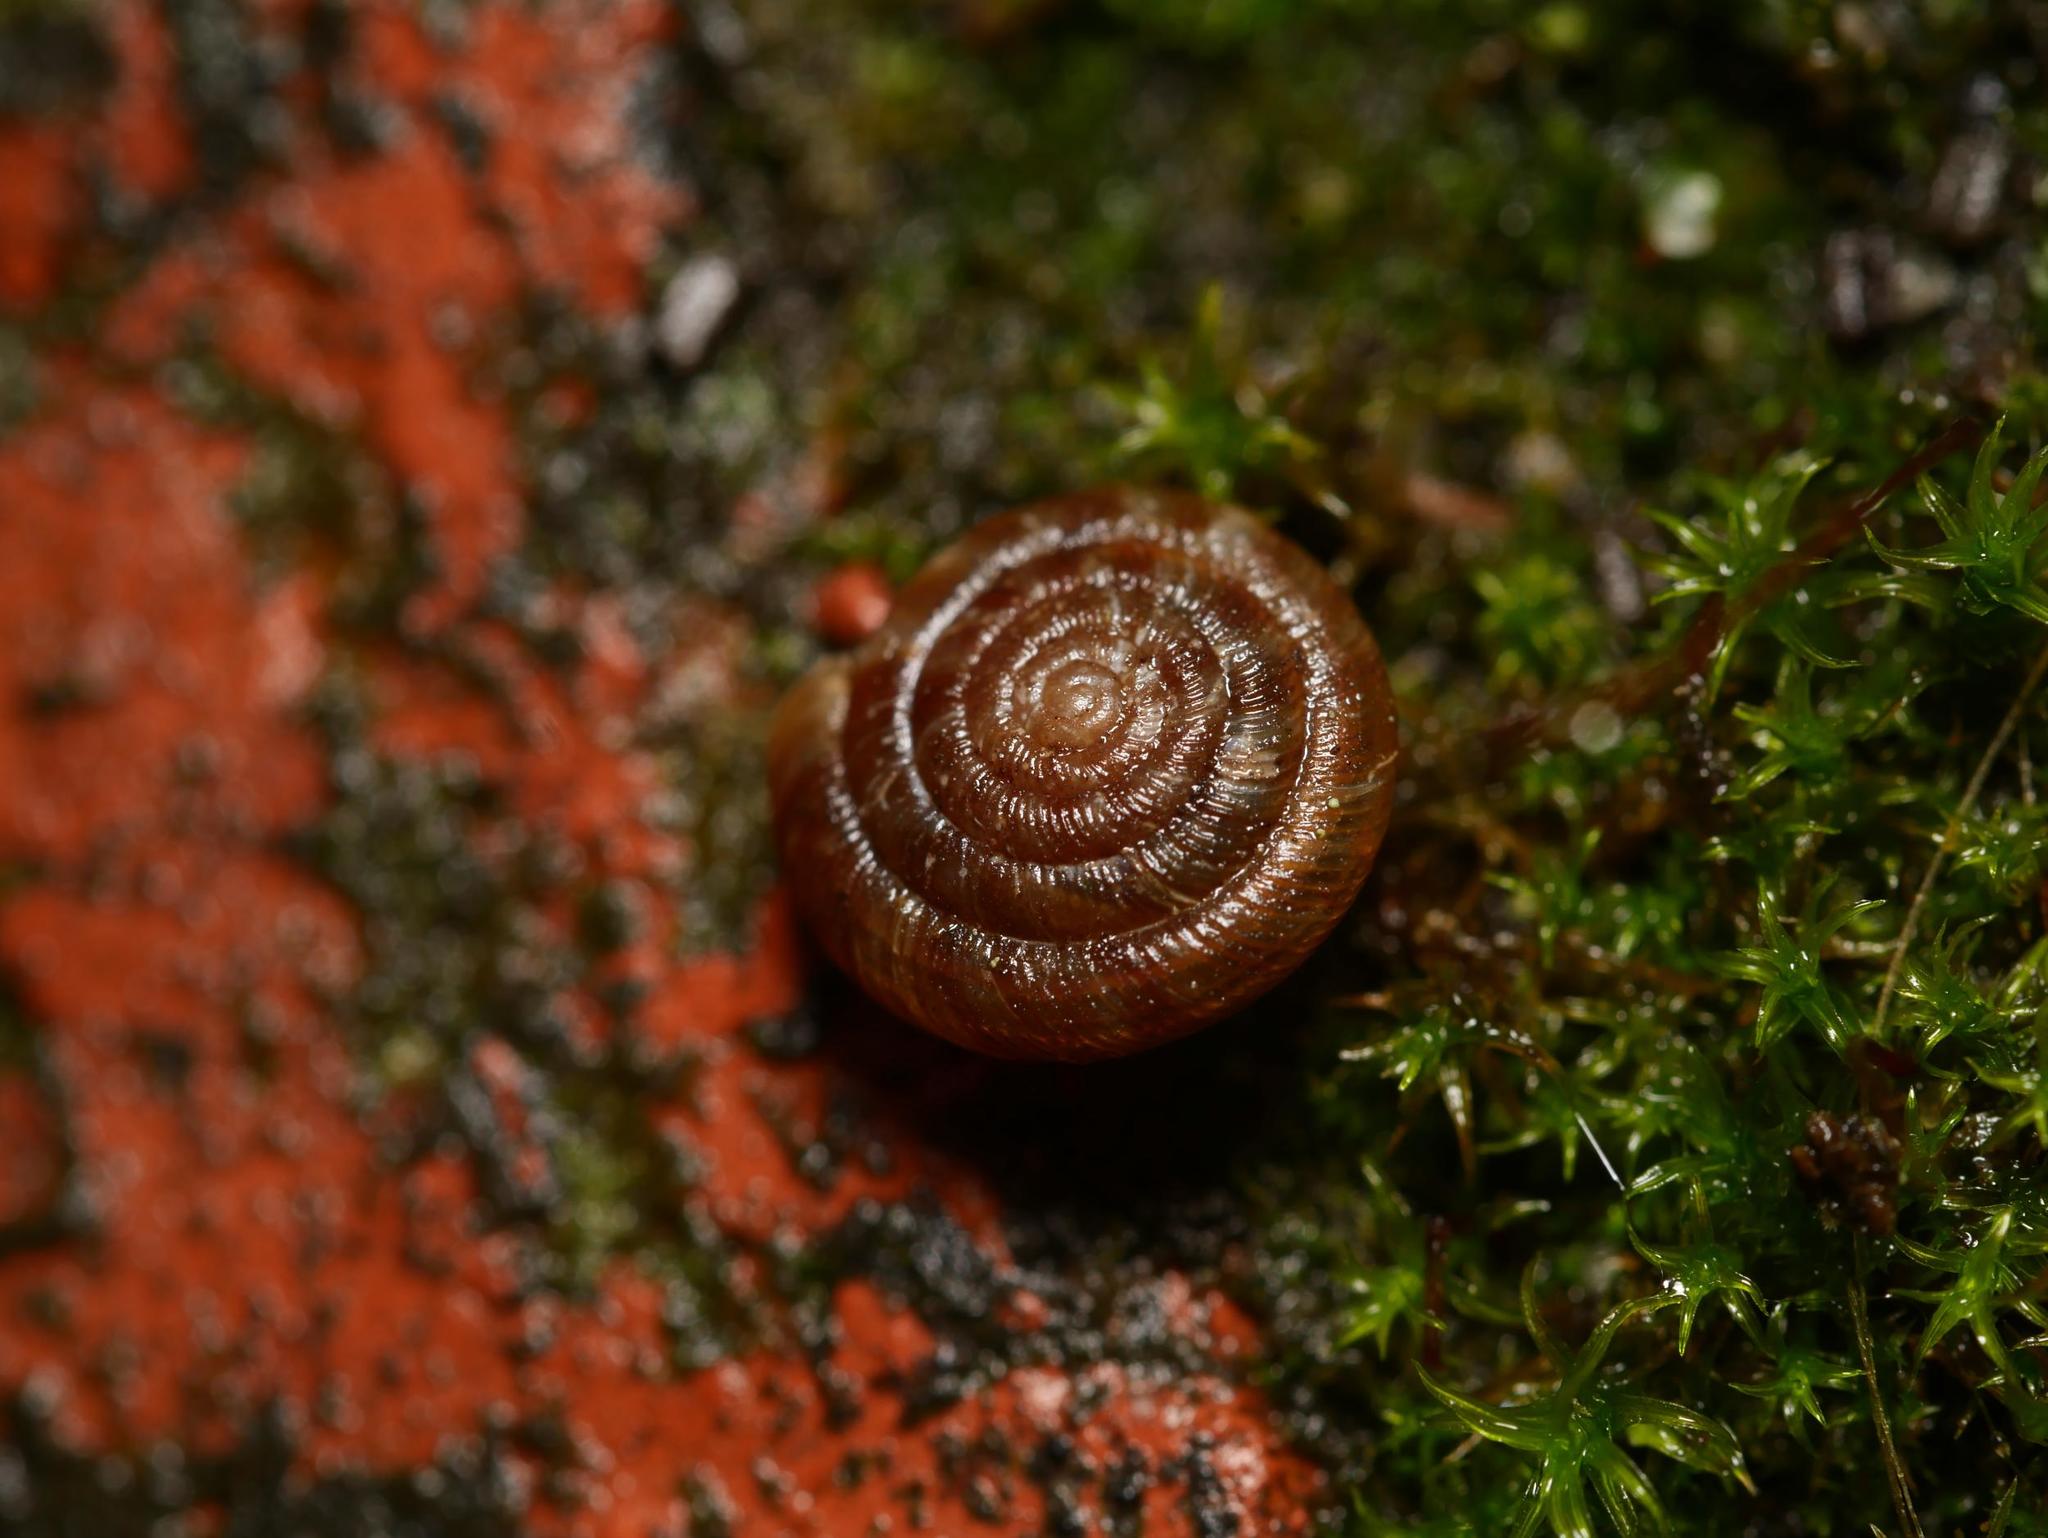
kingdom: Animalia
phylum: Mollusca
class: Gastropoda
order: Stylommatophora
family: Discidae
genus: Discus
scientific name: Discus rotundatus
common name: Rounded snail
